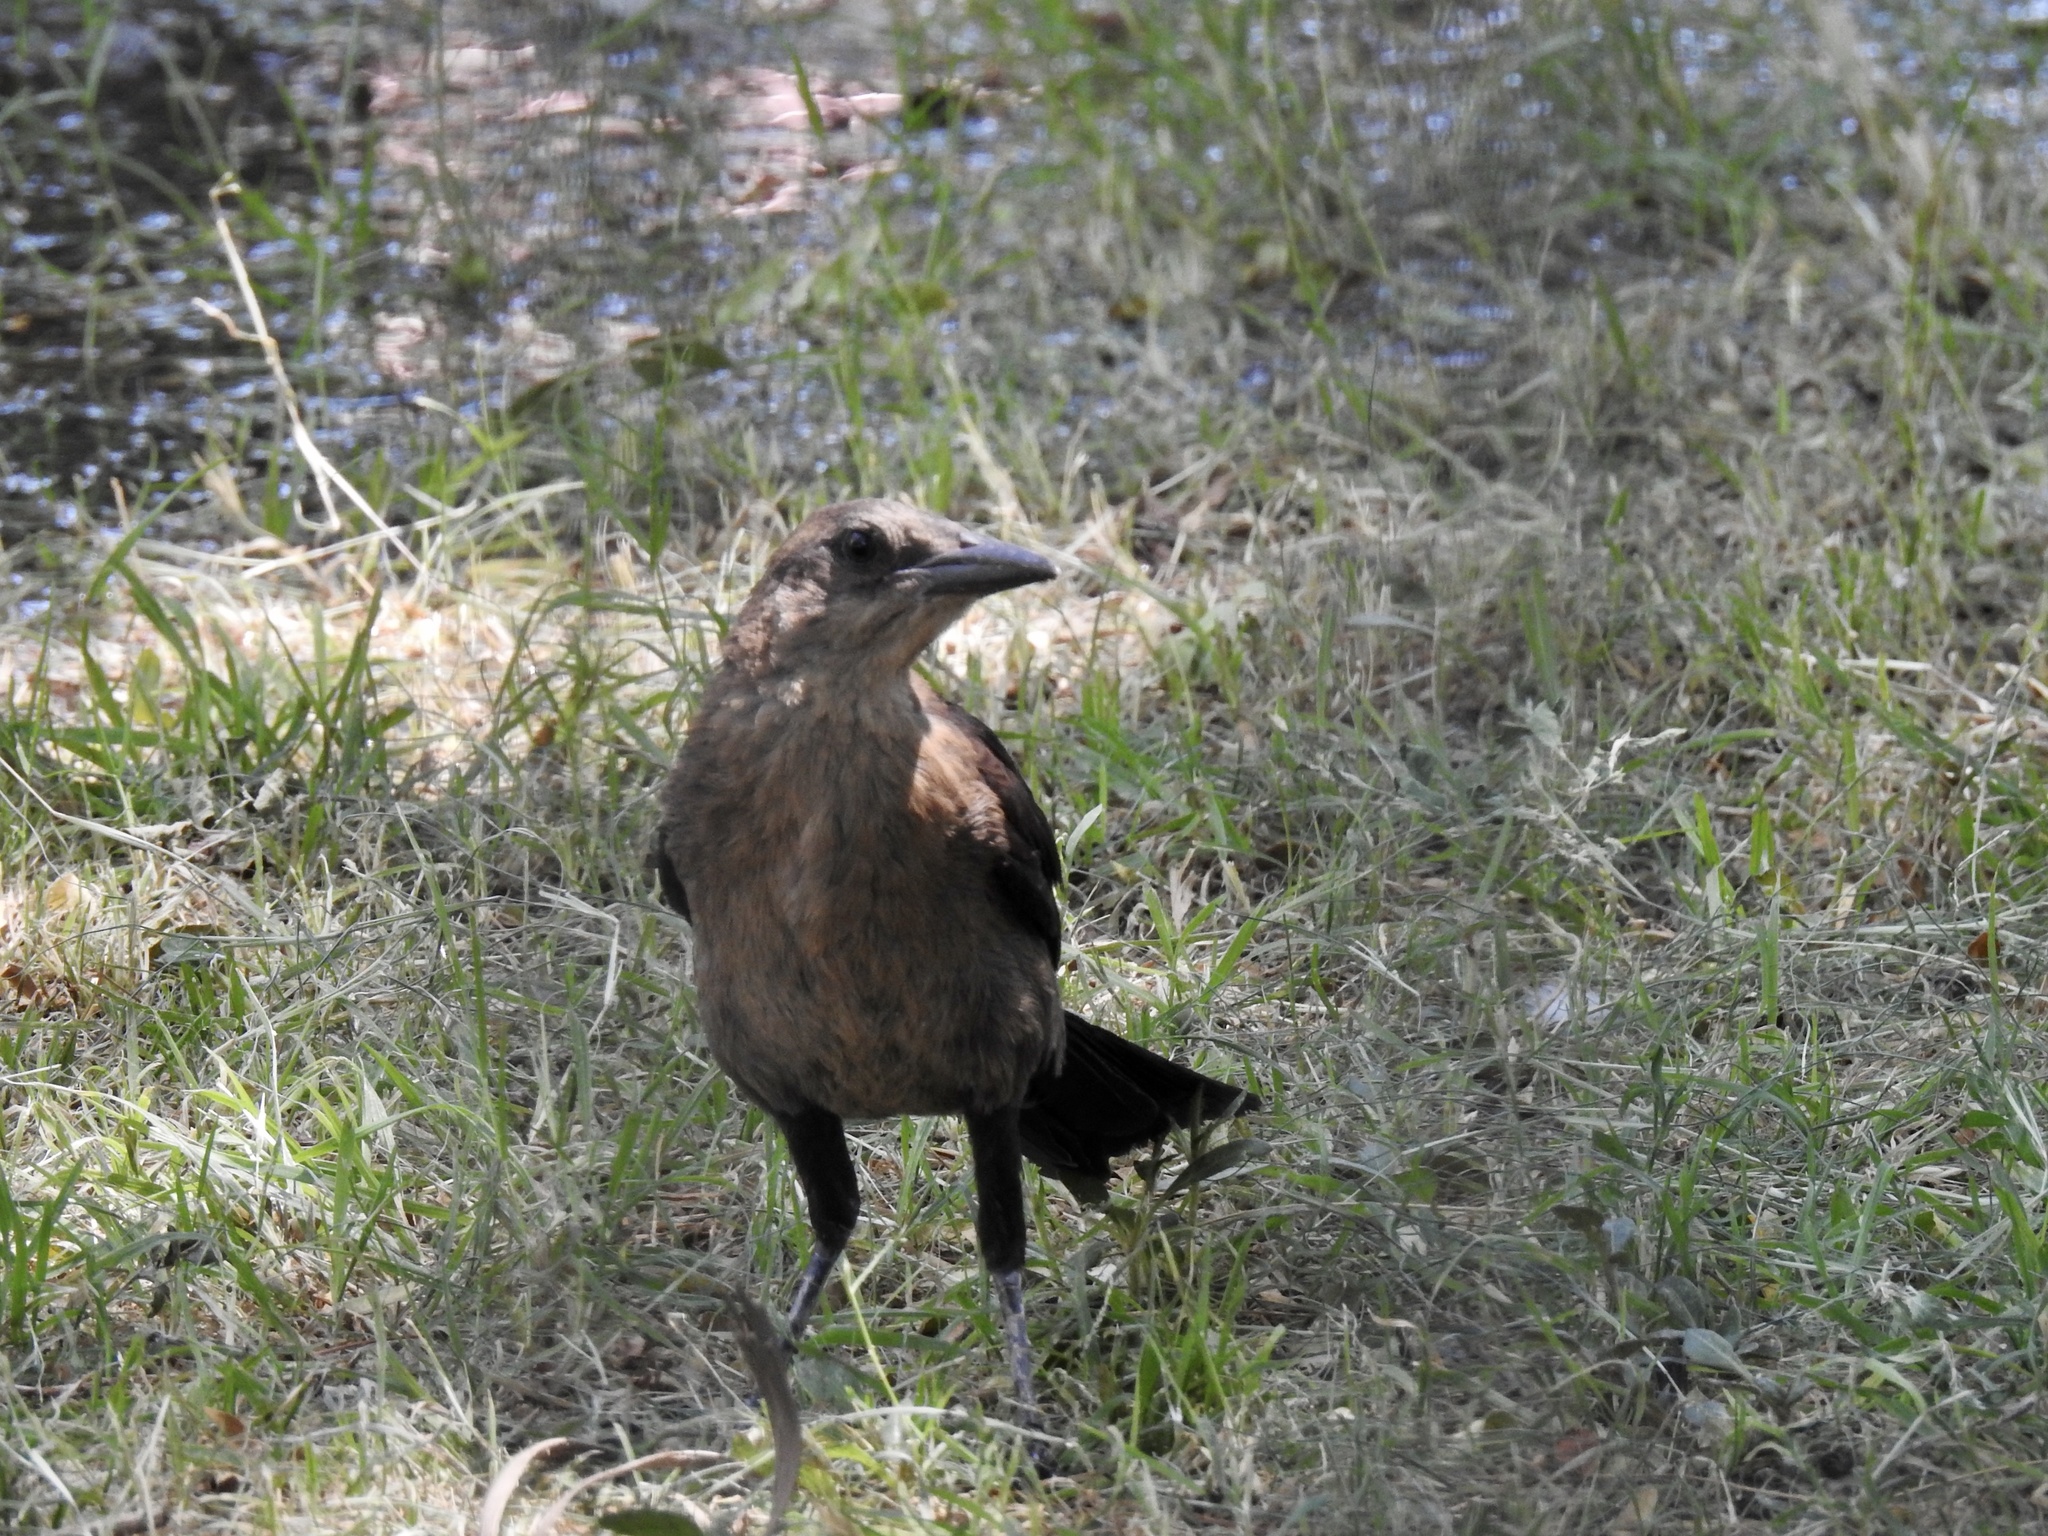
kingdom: Animalia
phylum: Chordata
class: Aves
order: Passeriformes
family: Icteridae
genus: Quiscalus
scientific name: Quiscalus mexicanus
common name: Great-tailed grackle
